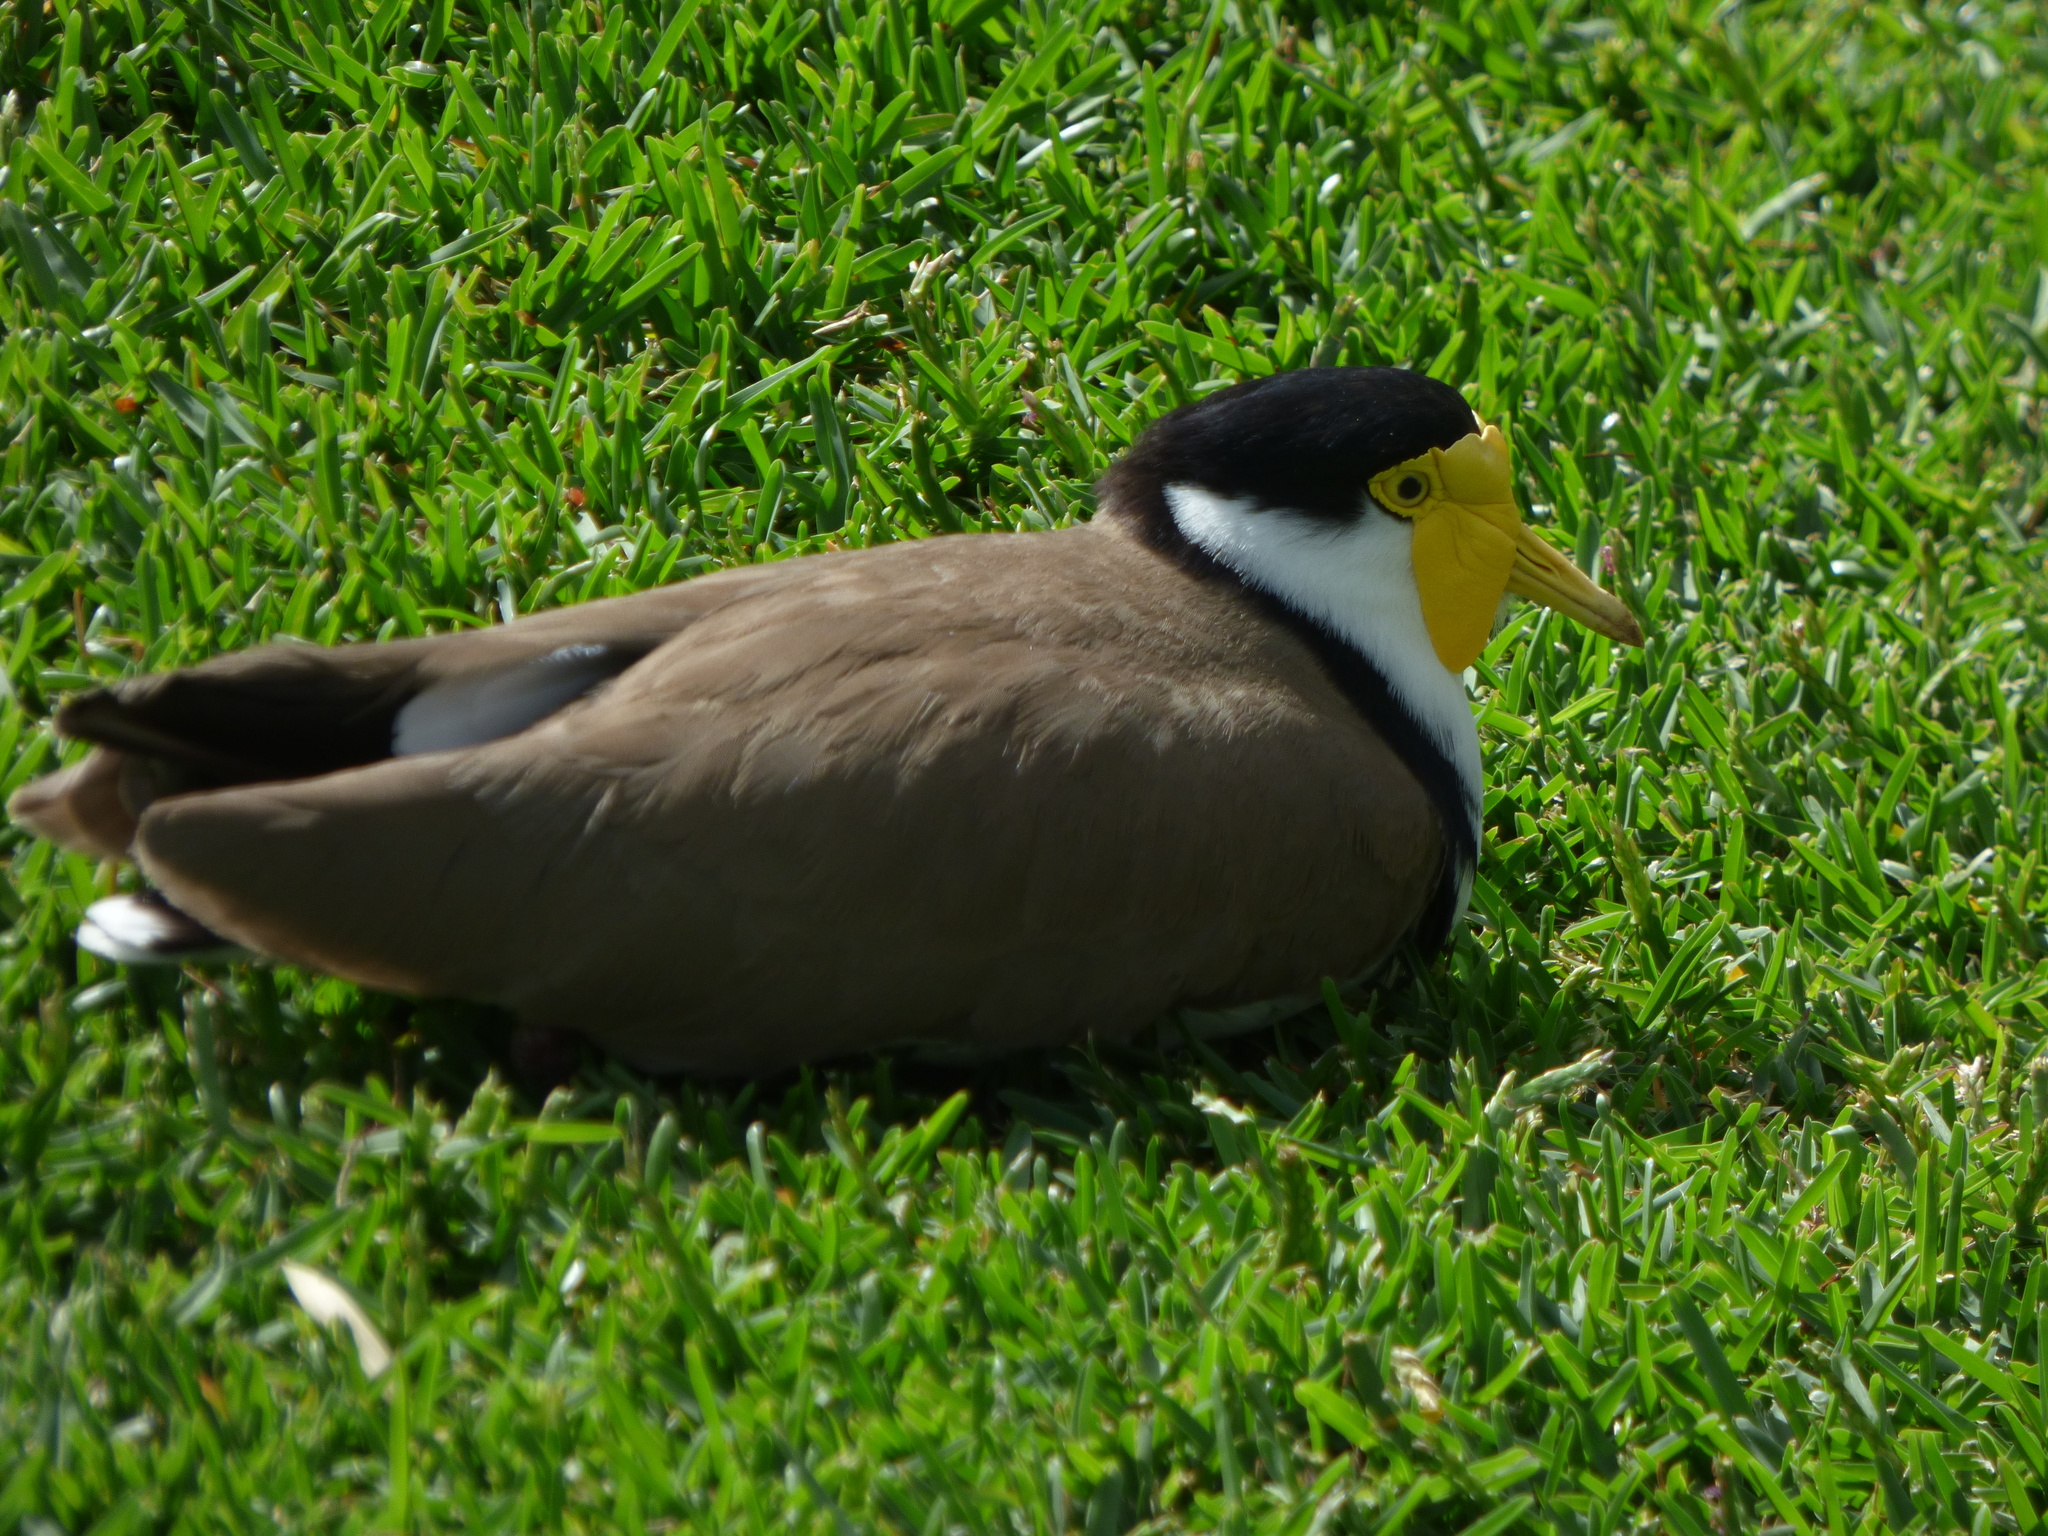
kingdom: Animalia
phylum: Chordata
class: Aves
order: Charadriiformes
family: Charadriidae
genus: Vanellus
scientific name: Vanellus miles
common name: Masked lapwing
